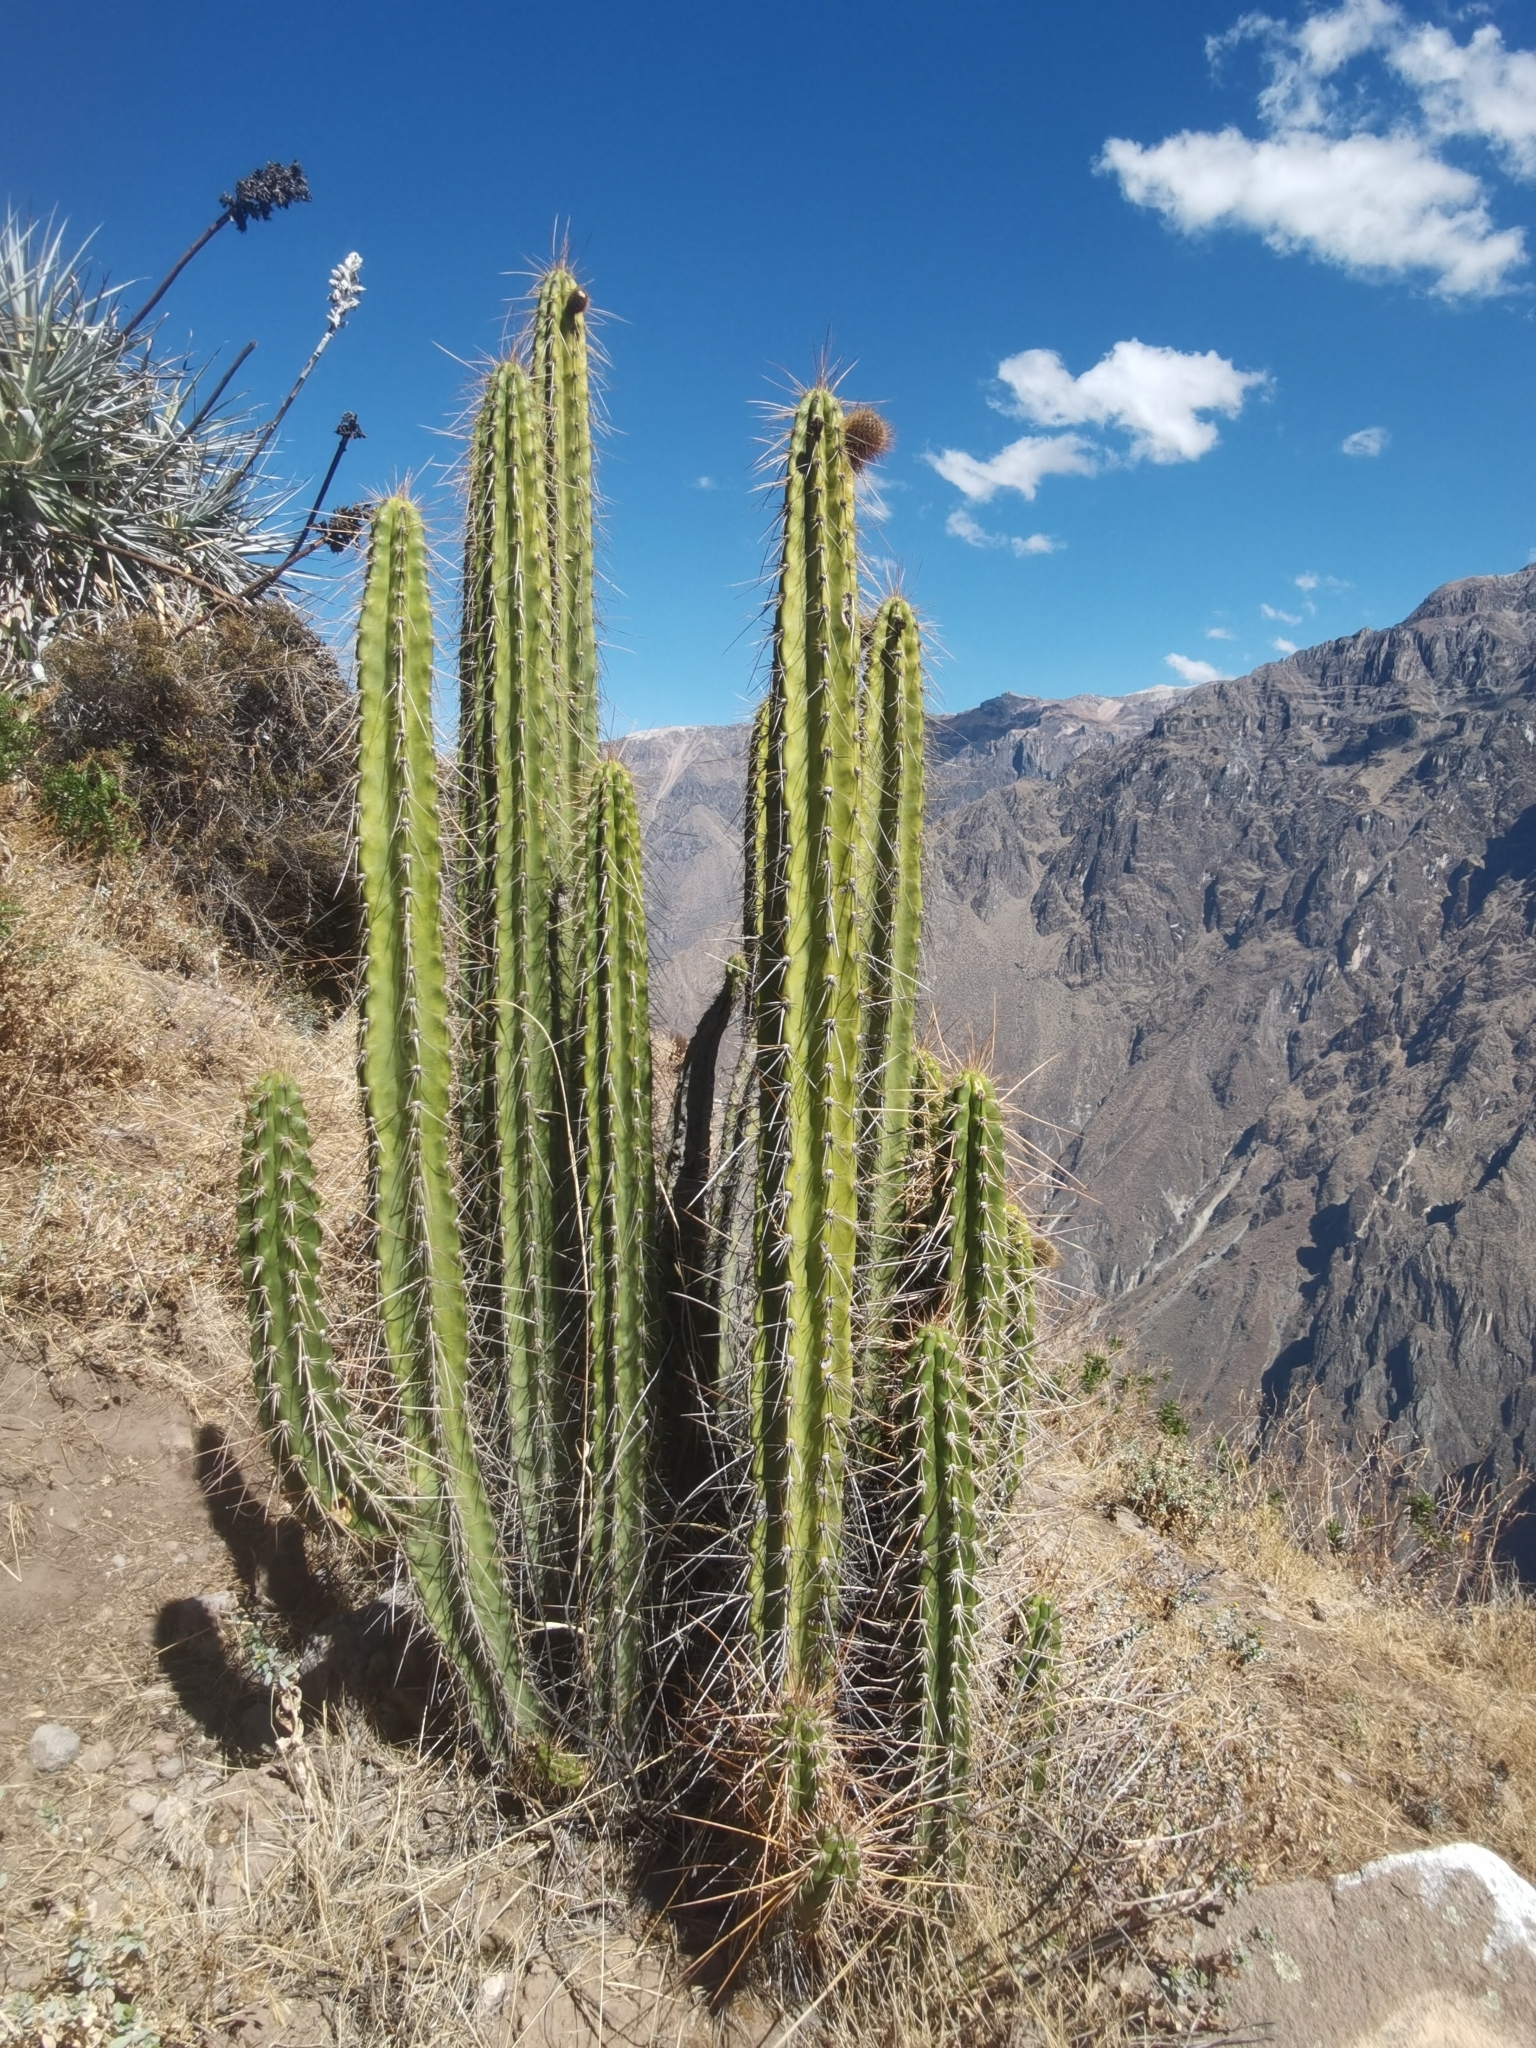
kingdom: Plantae
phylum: Tracheophyta
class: Magnoliopsida
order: Caryophyllales
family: Cactaceae
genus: Corryocactus
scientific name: Corryocactus brevistylus
